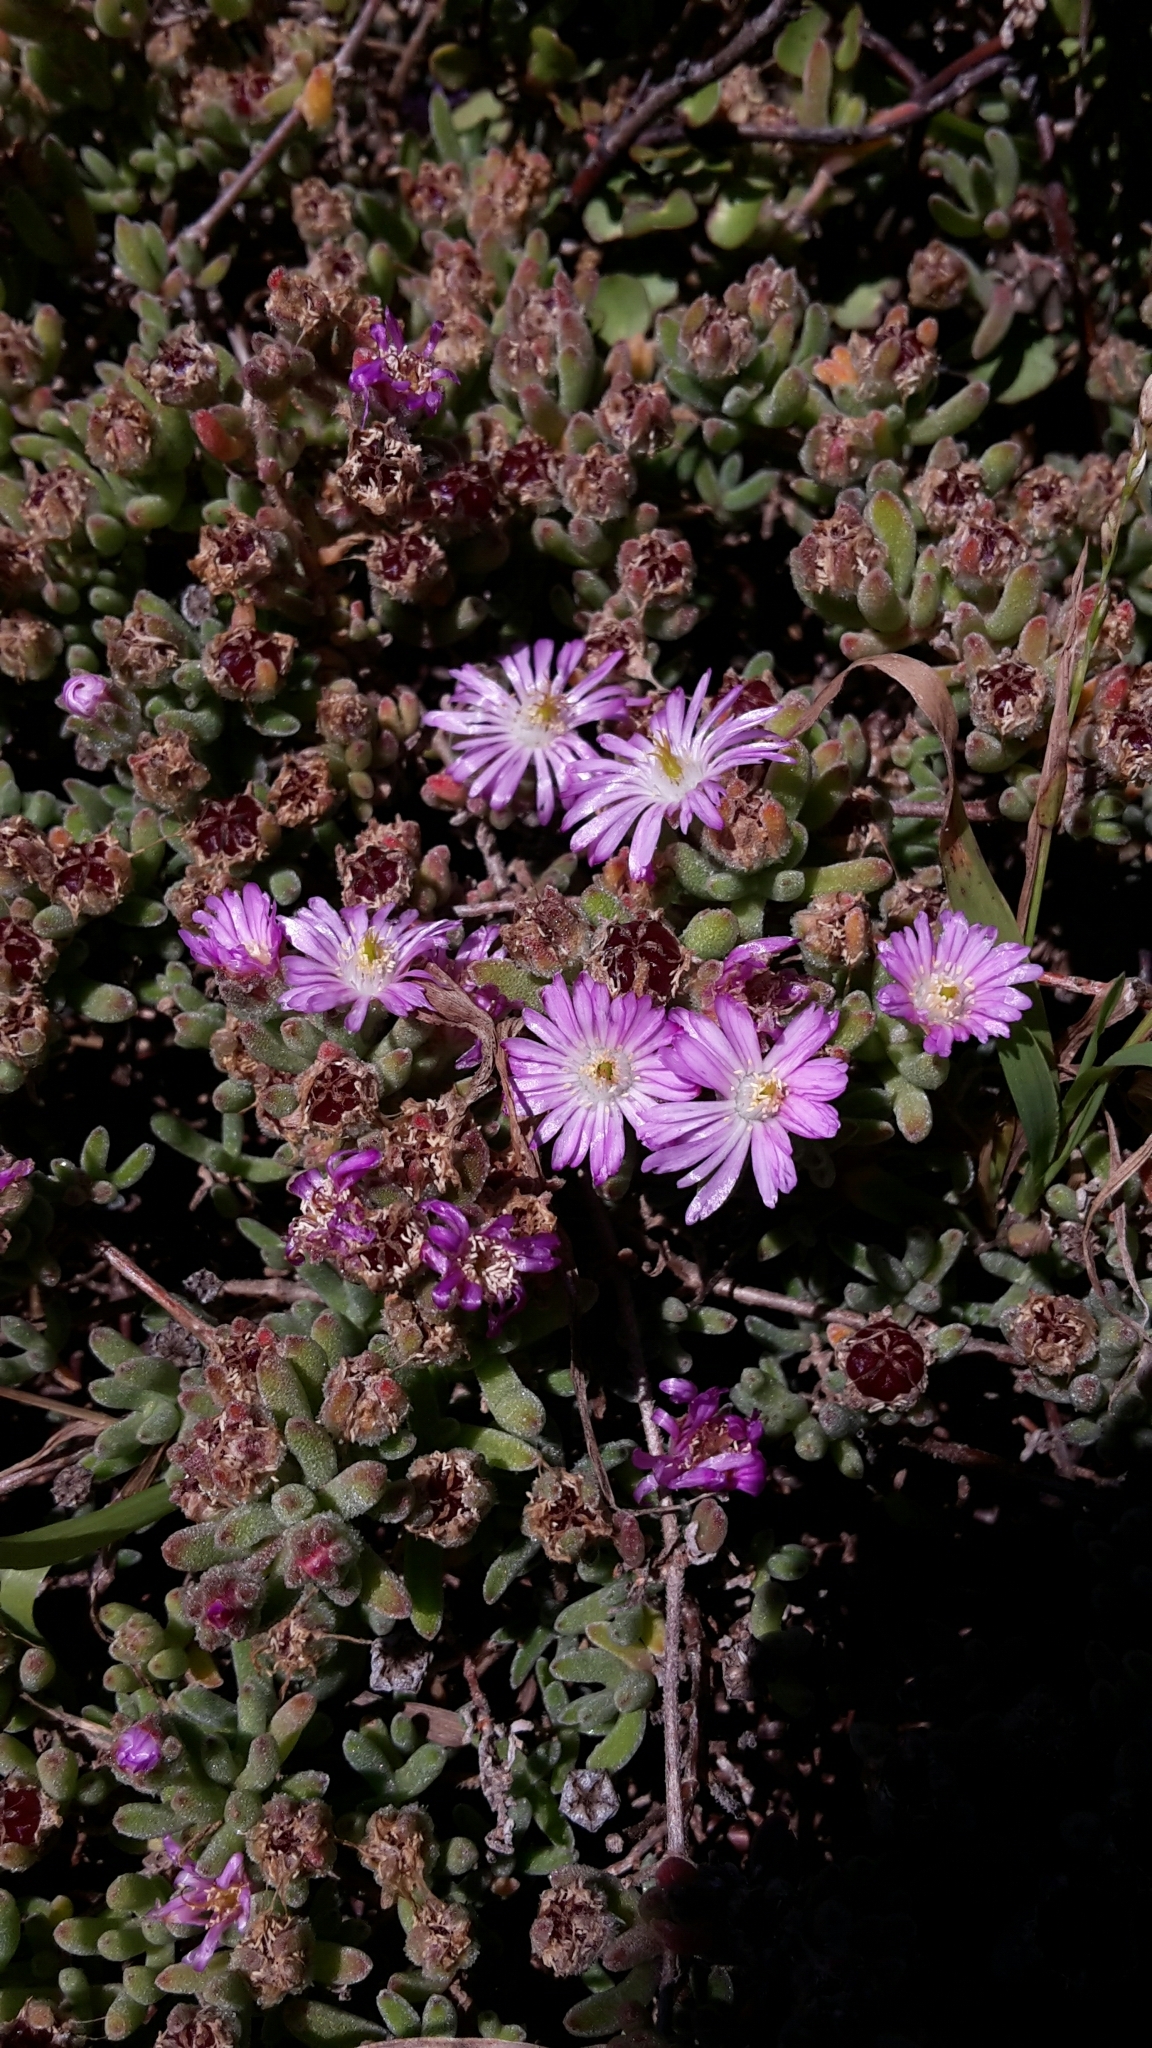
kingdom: Plantae
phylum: Tracheophyta
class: Magnoliopsida
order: Caryophyllales
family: Aizoaceae
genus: Drosanthemum
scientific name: Drosanthemum floribundum
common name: Pale dewplant
